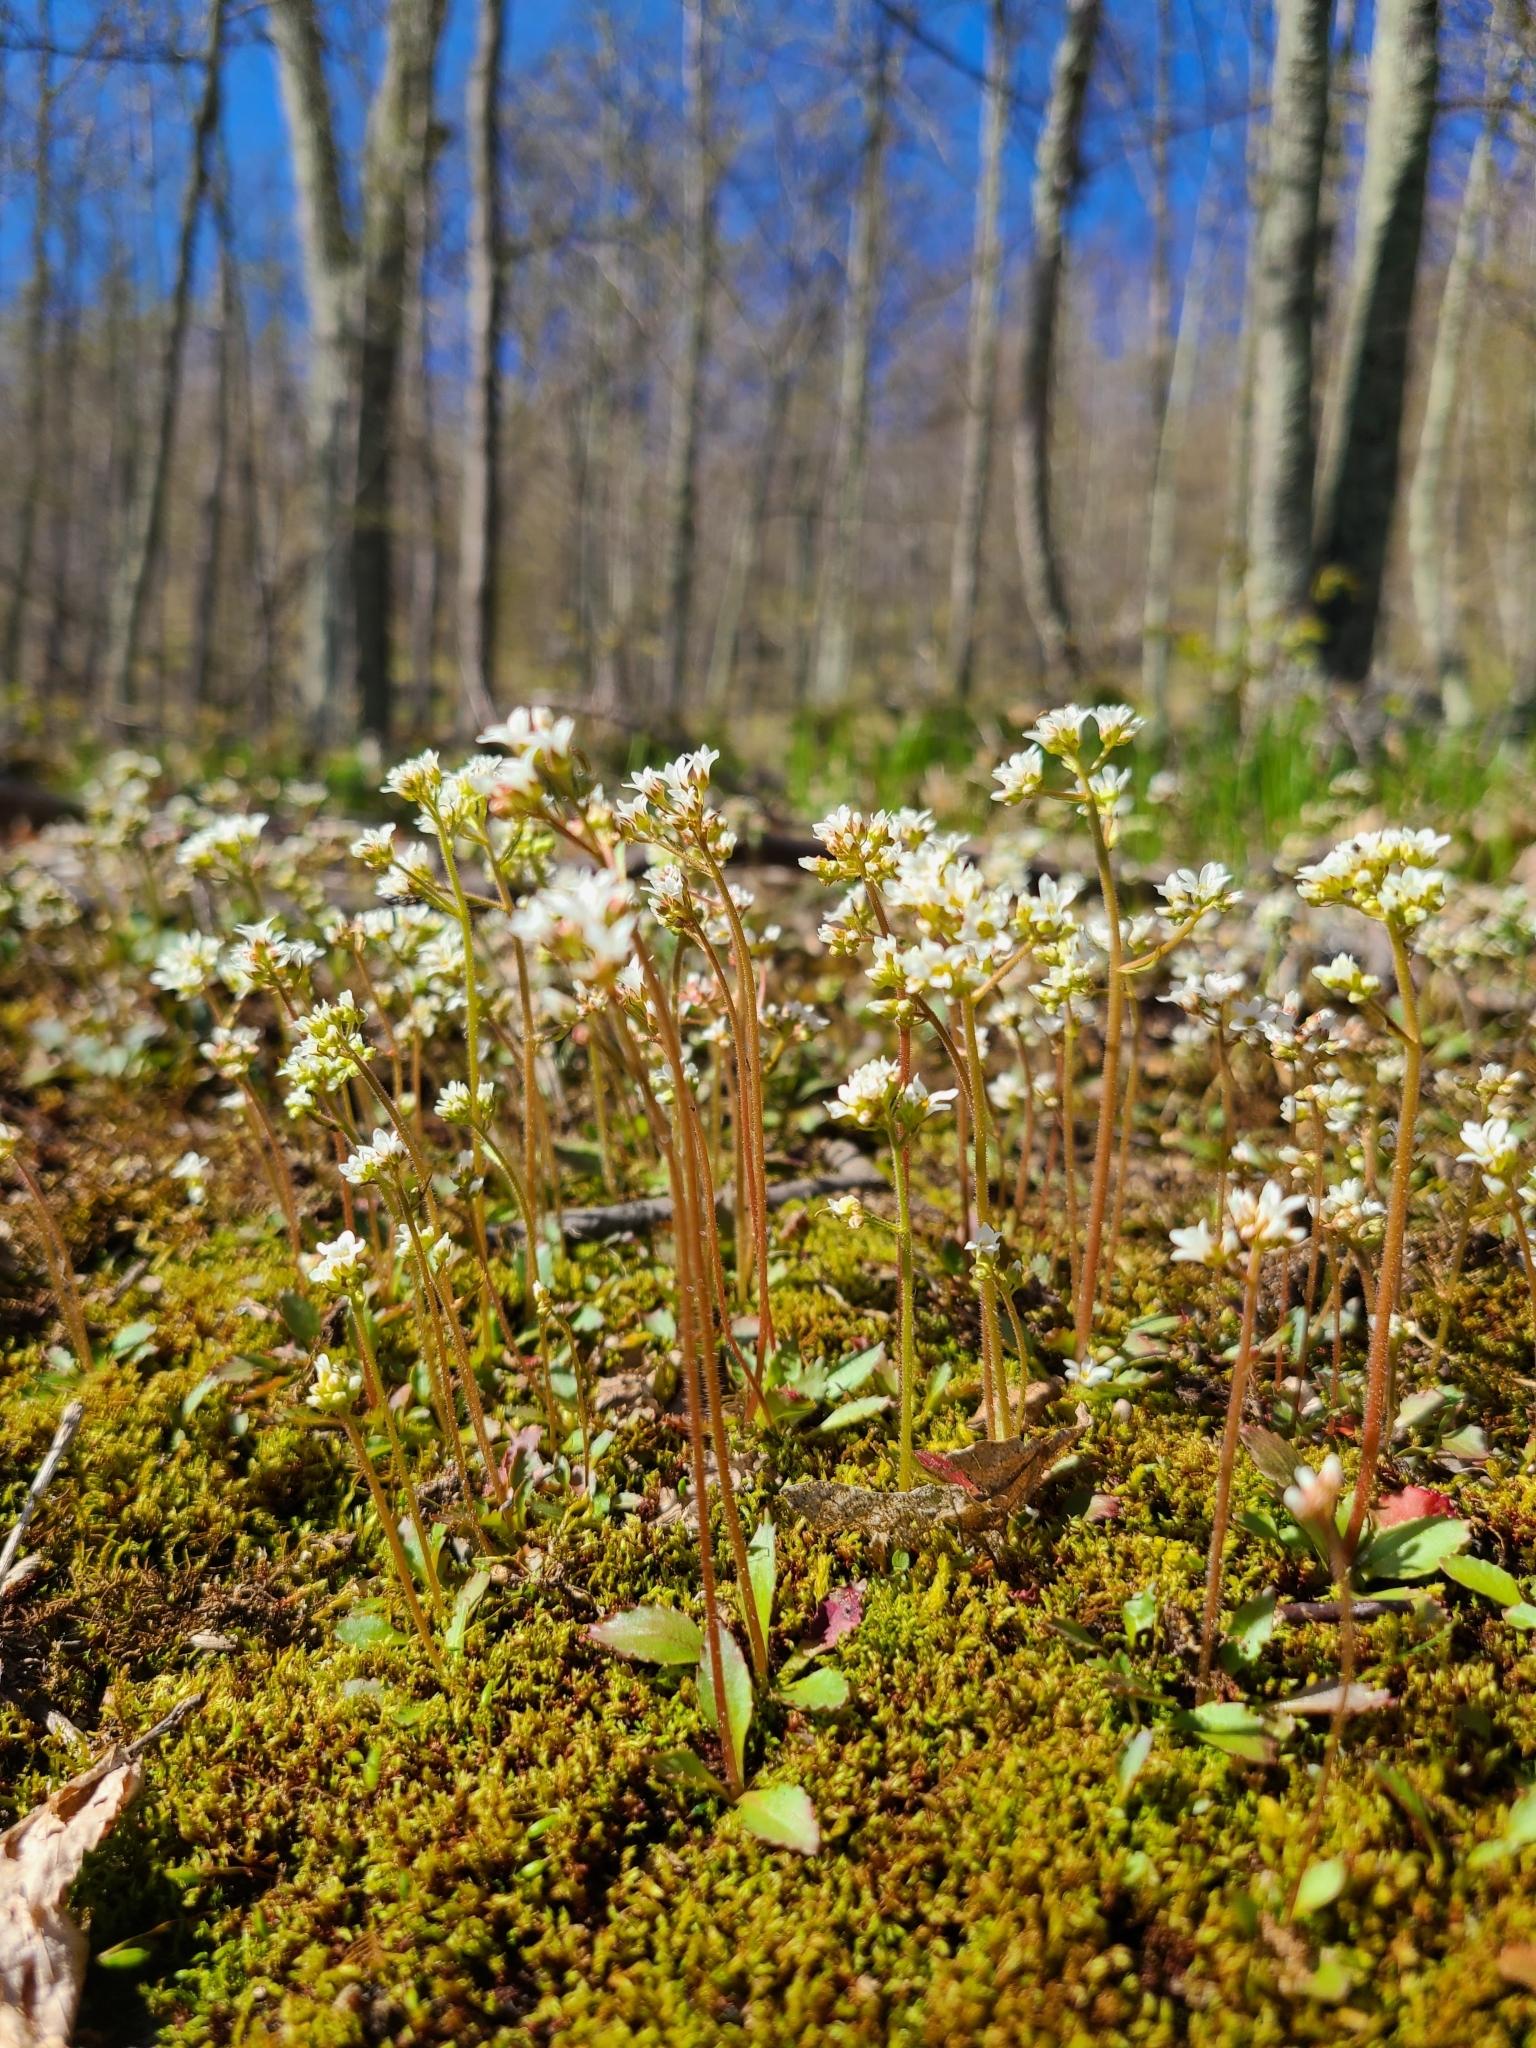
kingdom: Plantae
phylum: Tracheophyta
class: Magnoliopsida
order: Saxifragales
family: Saxifragaceae
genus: Micranthes
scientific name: Micranthes virginiensis
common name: Early saxifrage
